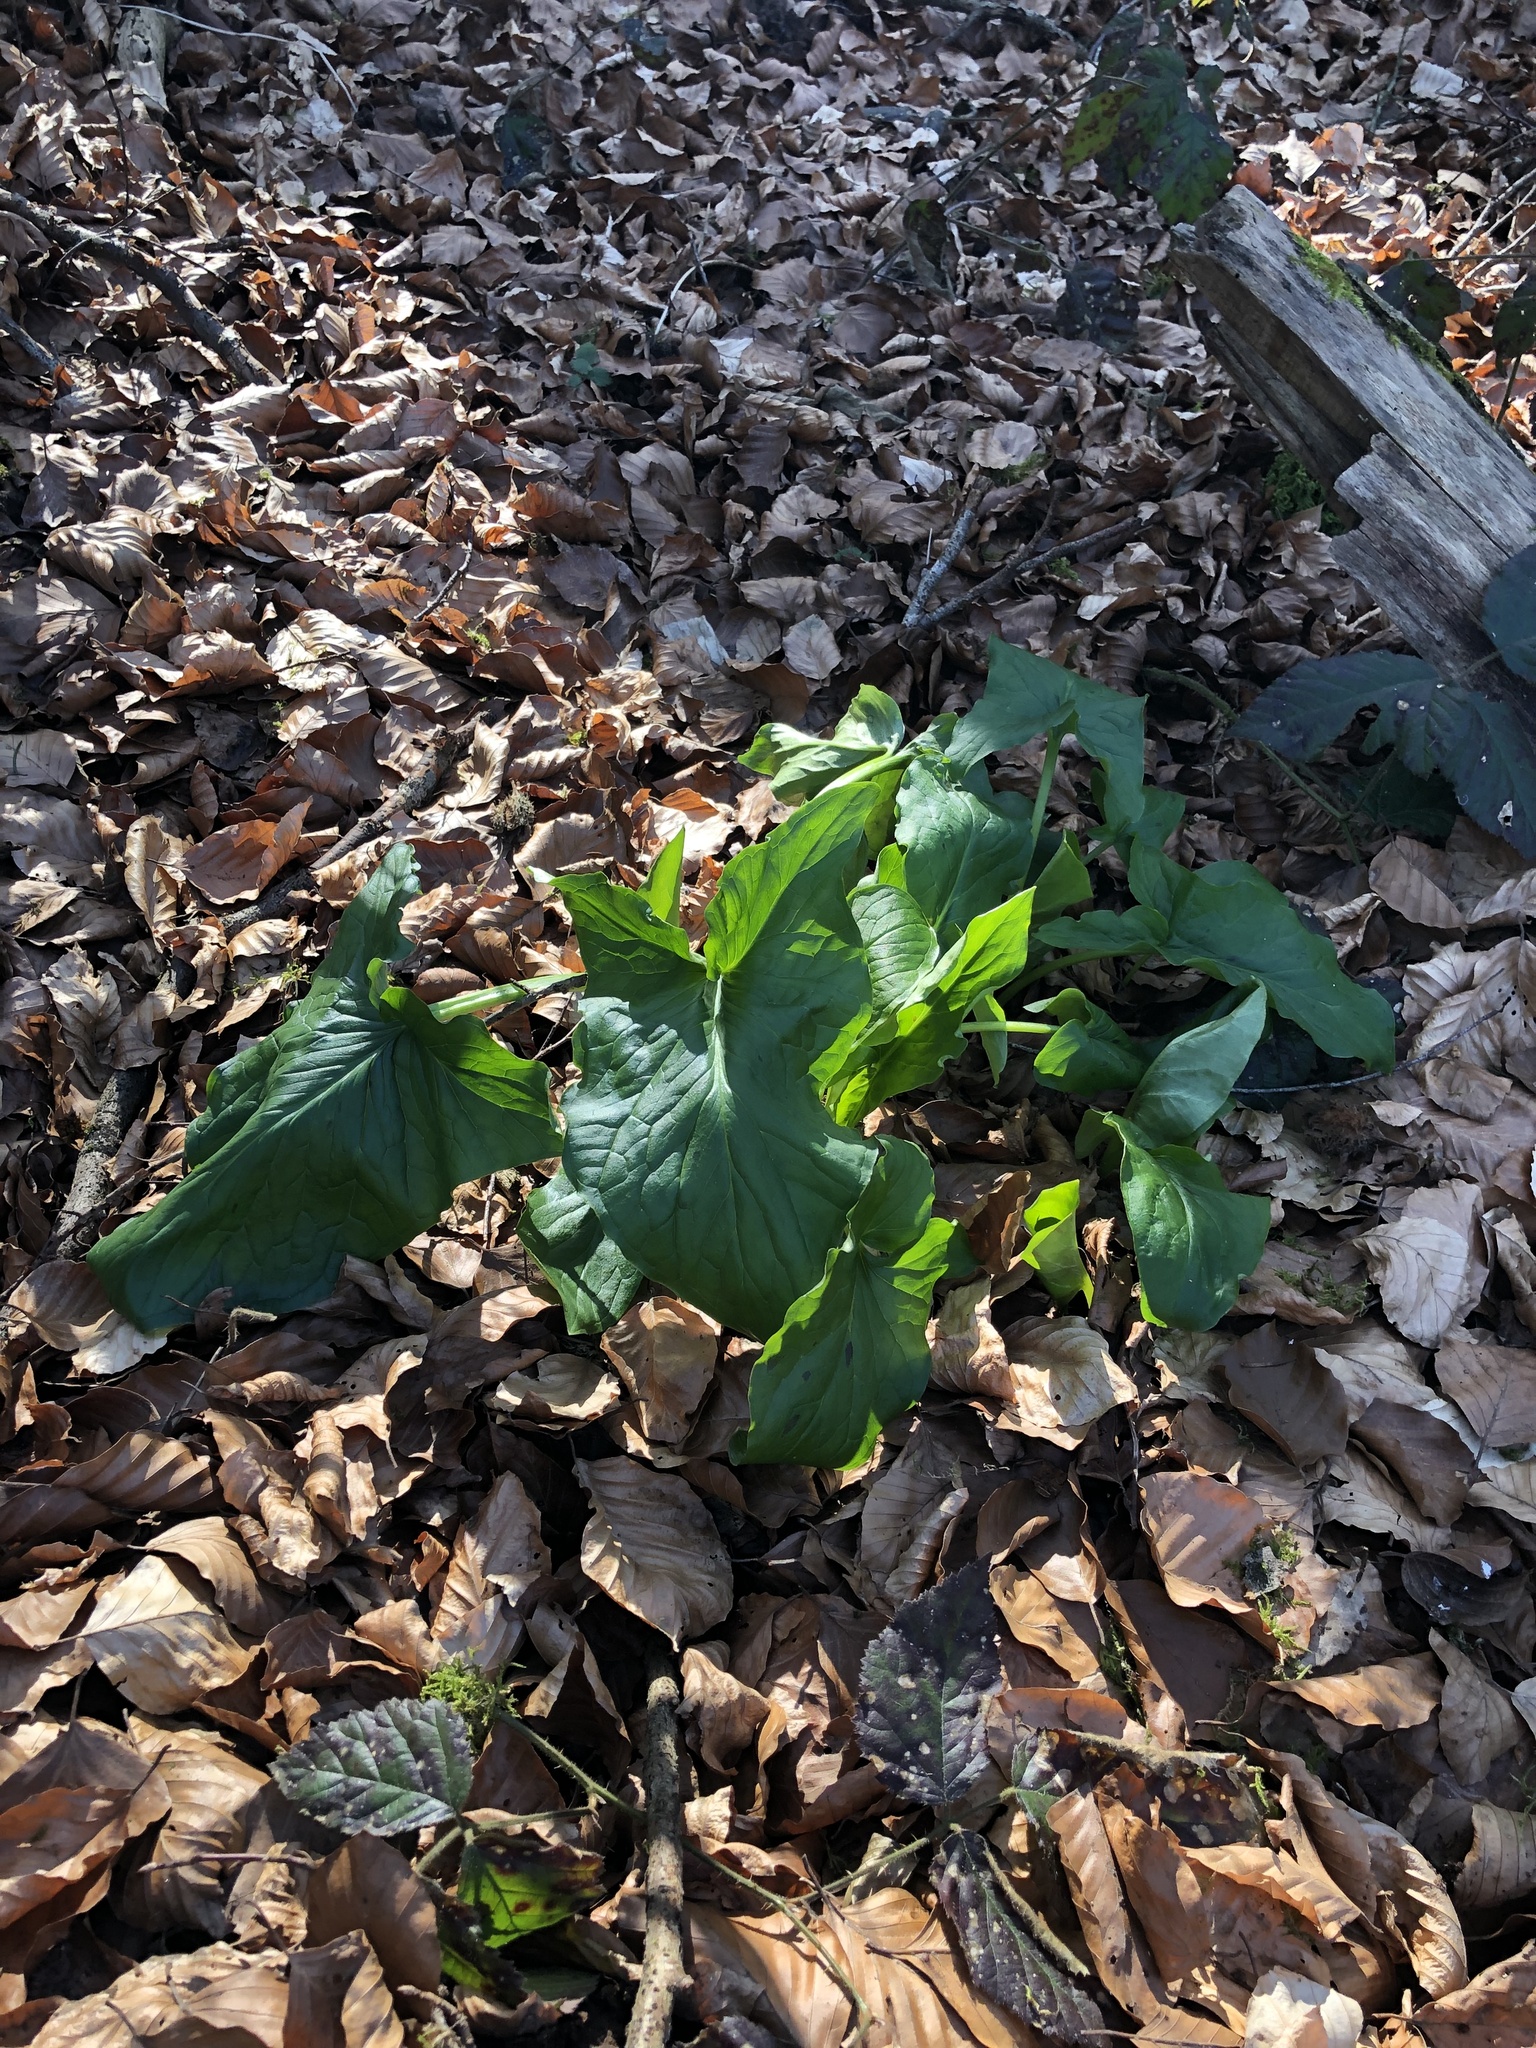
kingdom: Plantae
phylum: Tracheophyta
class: Liliopsida
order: Alismatales
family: Araceae
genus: Arum
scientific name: Arum maculatum
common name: Lords-and-ladies
